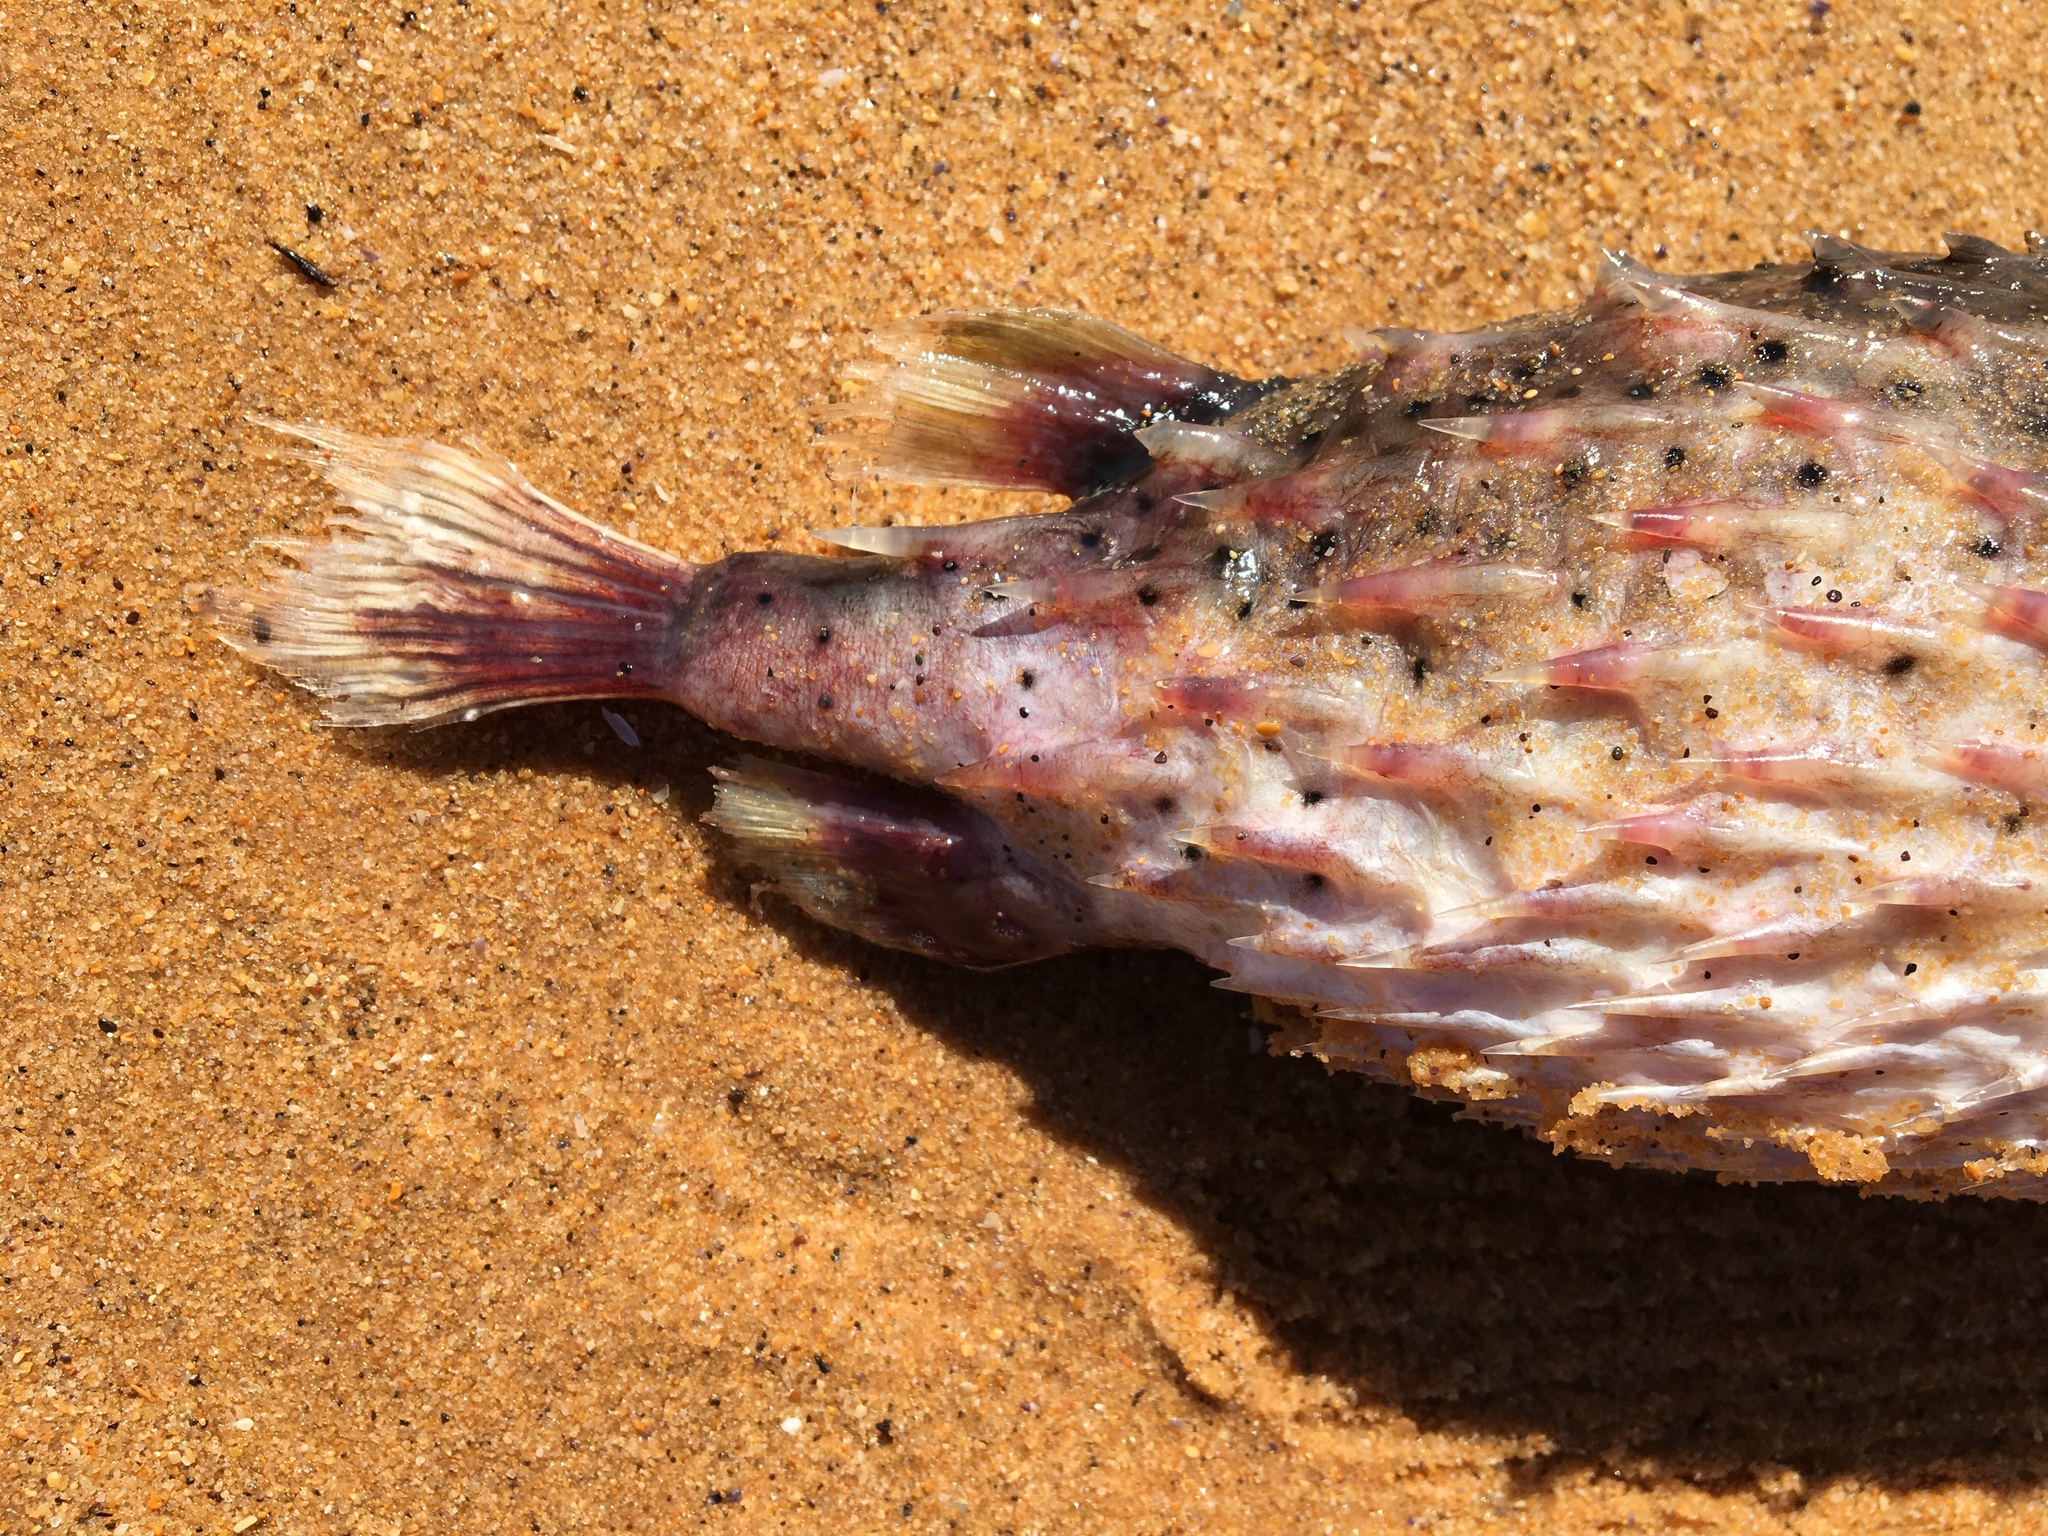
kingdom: Animalia
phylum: Chordata
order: Tetraodontiformes
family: Diodontidae
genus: Dicotylichthys
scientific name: Dicotylichthys punctulatus
